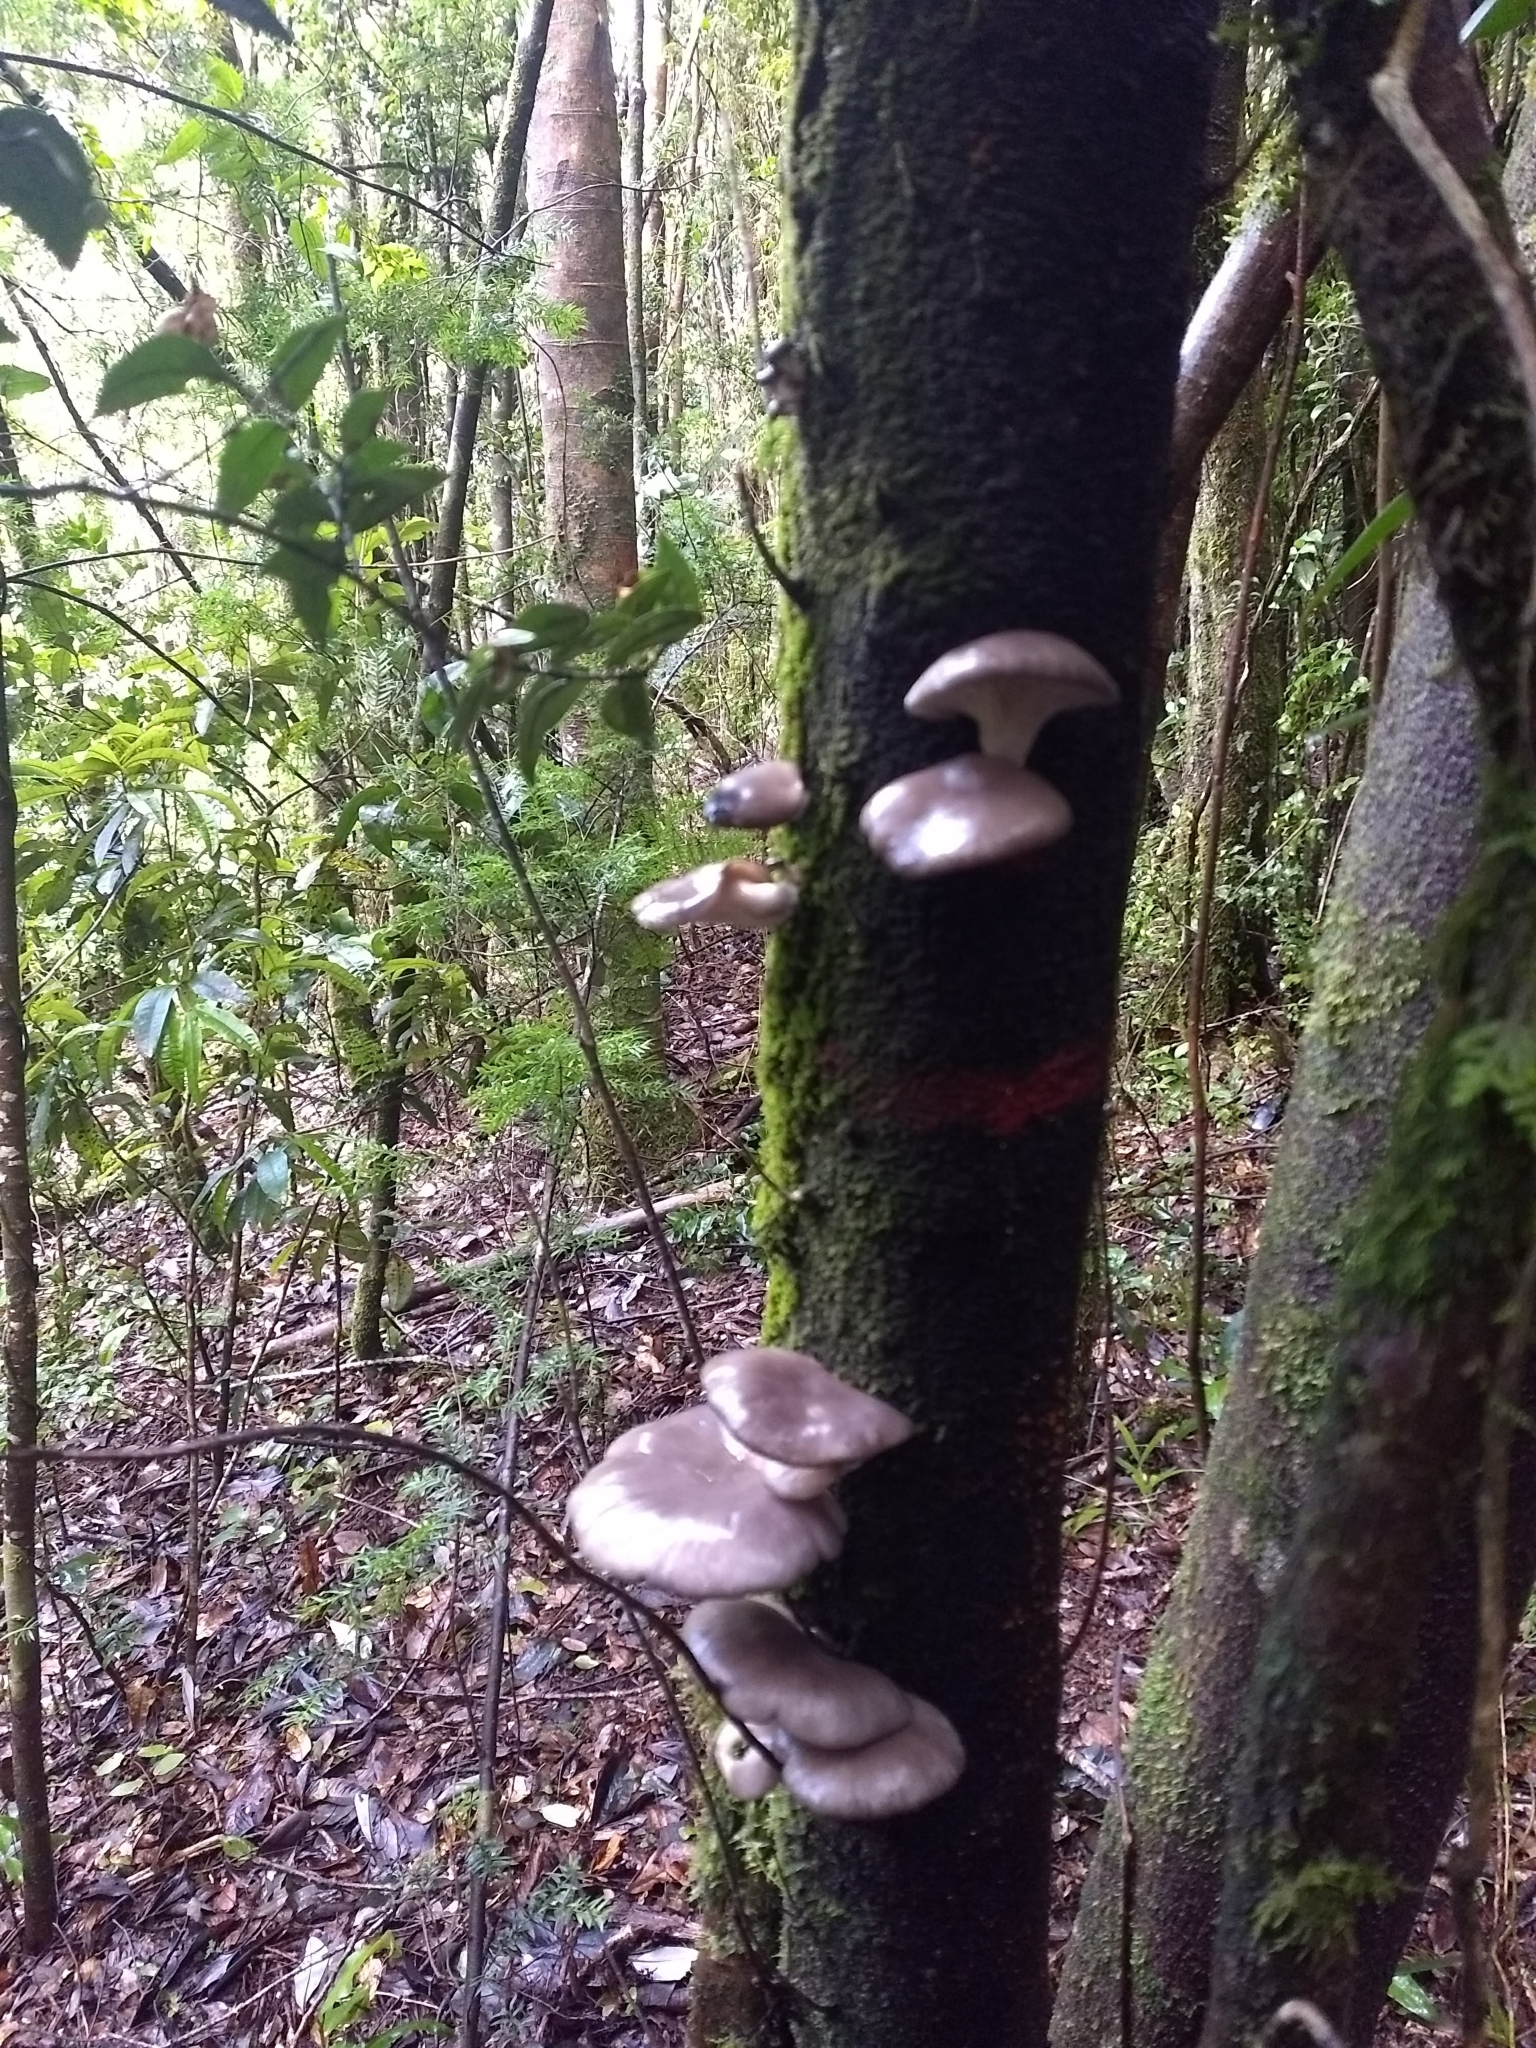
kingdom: Fungi
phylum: Basidiomycota
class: Agaricomycetes
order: Agaricales
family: Pleurotaceae
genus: Pleurotus
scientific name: Pleurotus ostreatus
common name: Oyster mushroom
